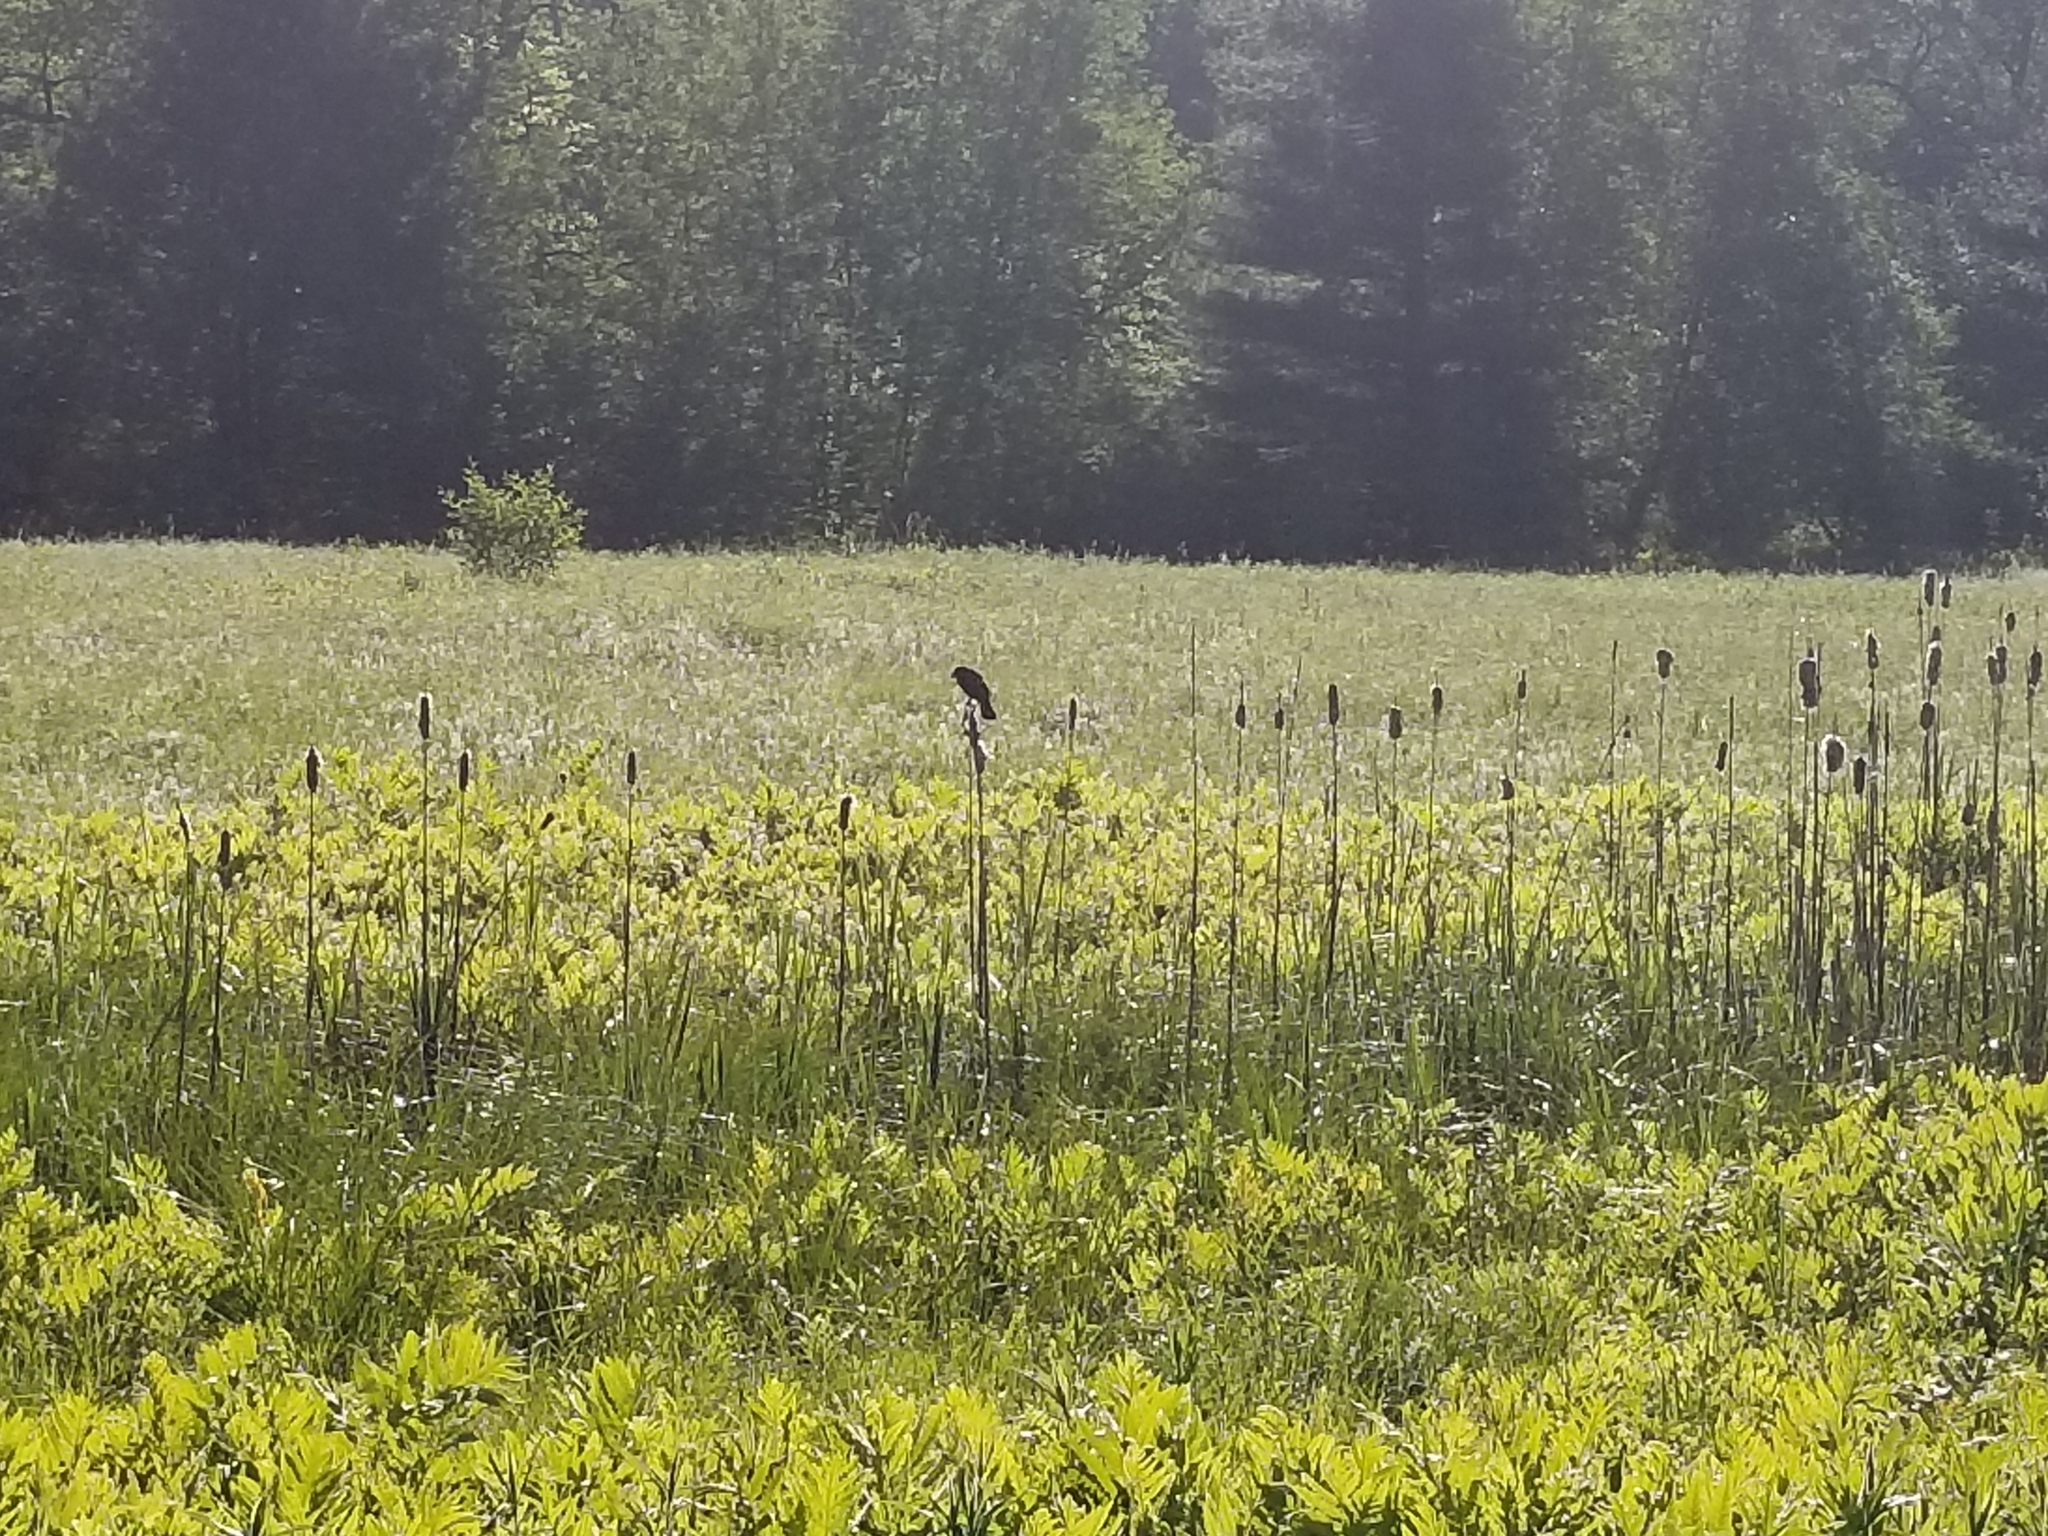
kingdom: Animalia
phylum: Chordata
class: Aves
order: Passeriformes
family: Icteridae
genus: Agelaius
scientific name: Agelaius phoeniceus
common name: Red-winged blackbird
